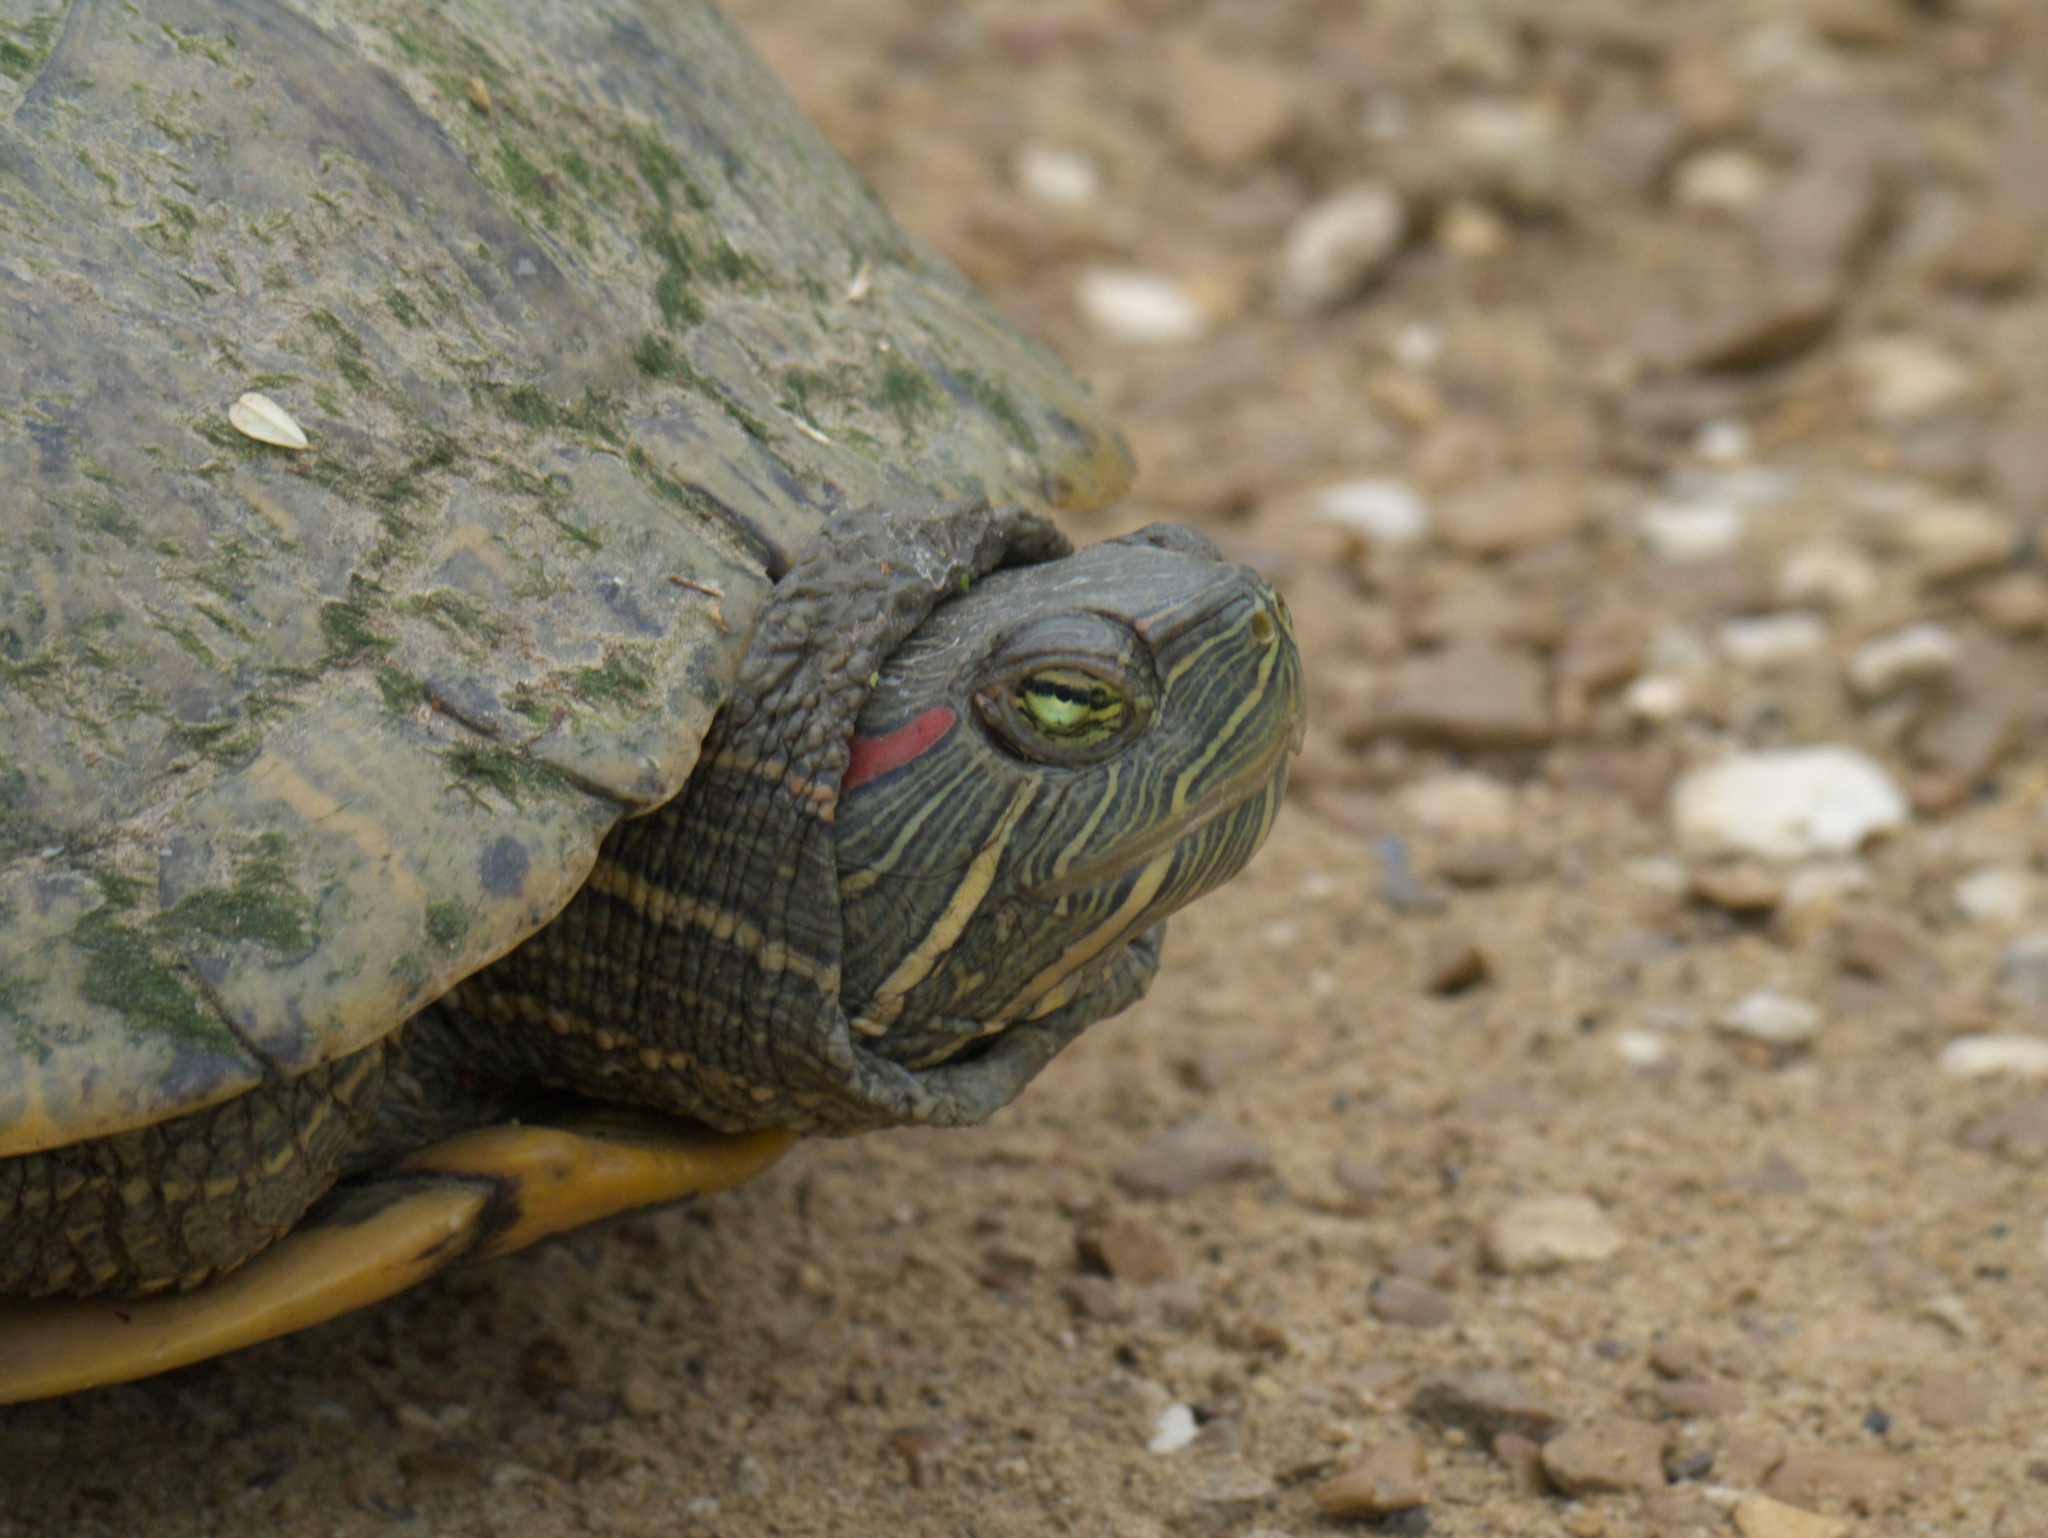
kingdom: Animalia
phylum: Chordata
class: Testudines
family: Emydidae
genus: Trachemys
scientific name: Trachemys scripta
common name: Slider
